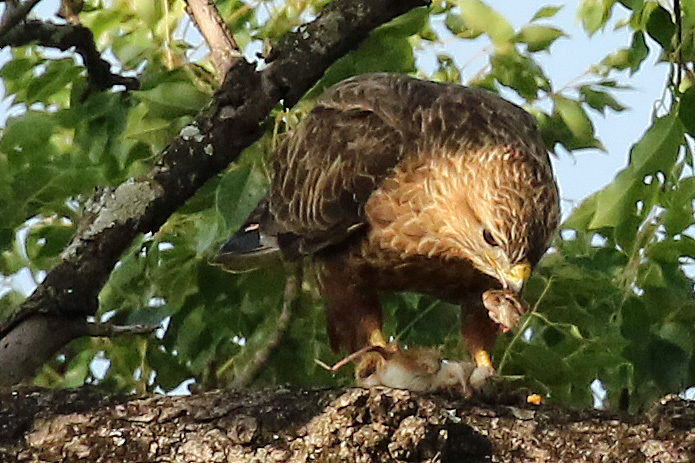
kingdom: Animalia
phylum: Chordata
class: Aves
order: Accipitriformes
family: Accipitridae
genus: Buteo
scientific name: Buteo buteo
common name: Common buzzard
